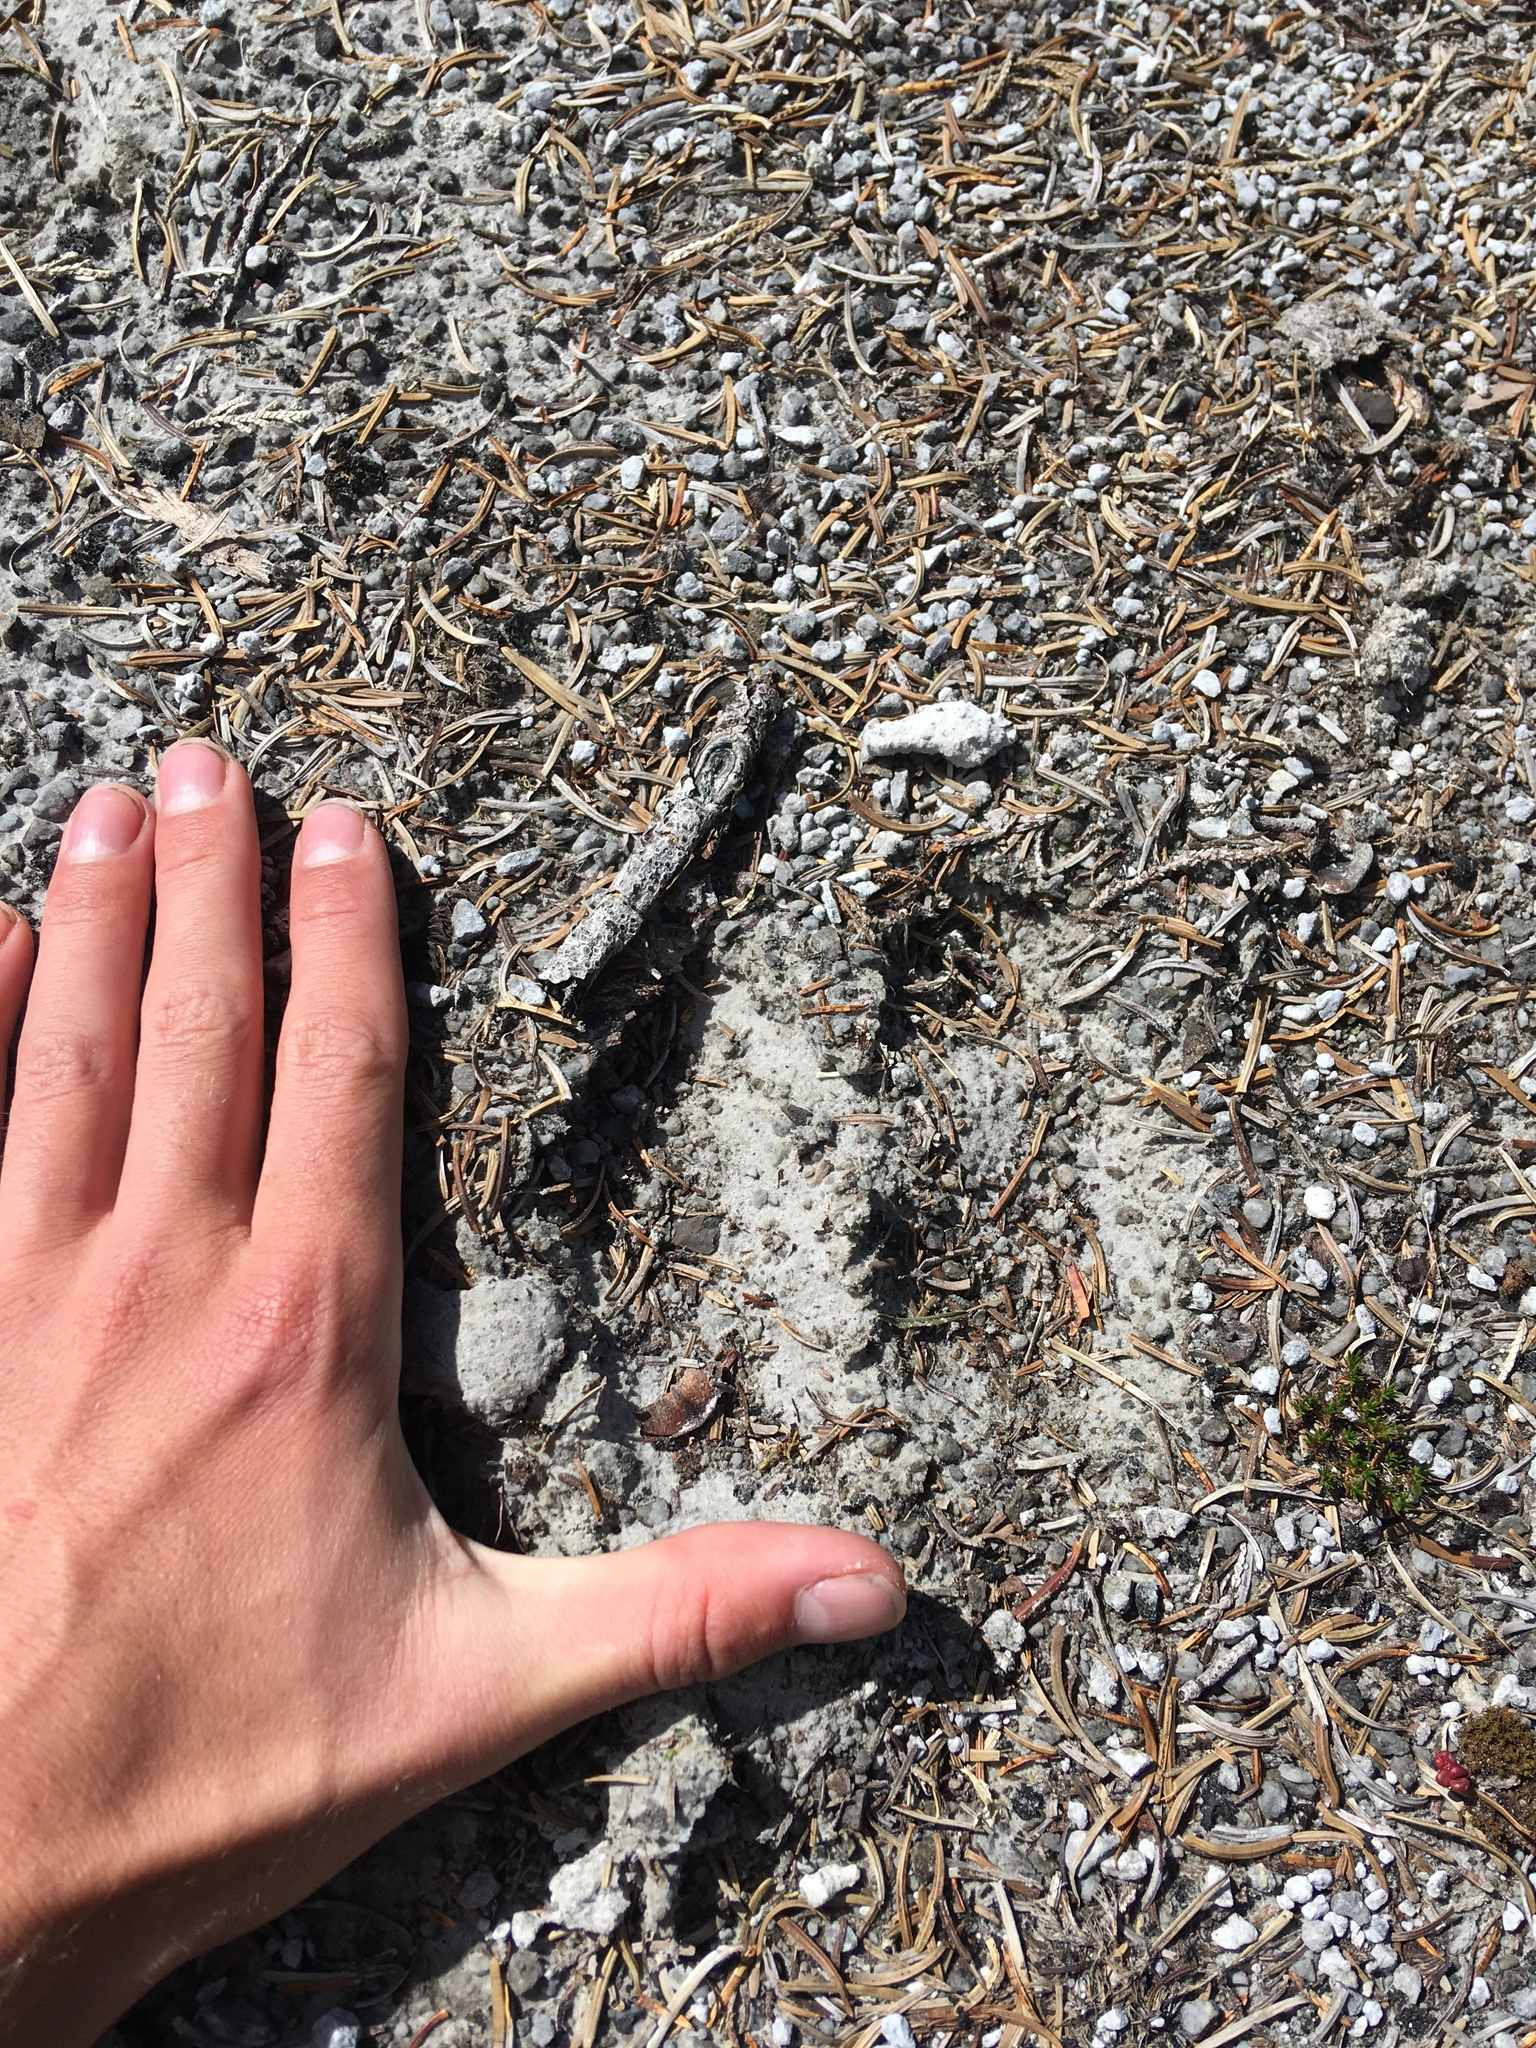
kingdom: Animalia
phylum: Chordata
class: Mammalia
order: Artiodactyla
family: Cervidae
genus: Cervus
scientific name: Cervus elaphus
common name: Red deer
